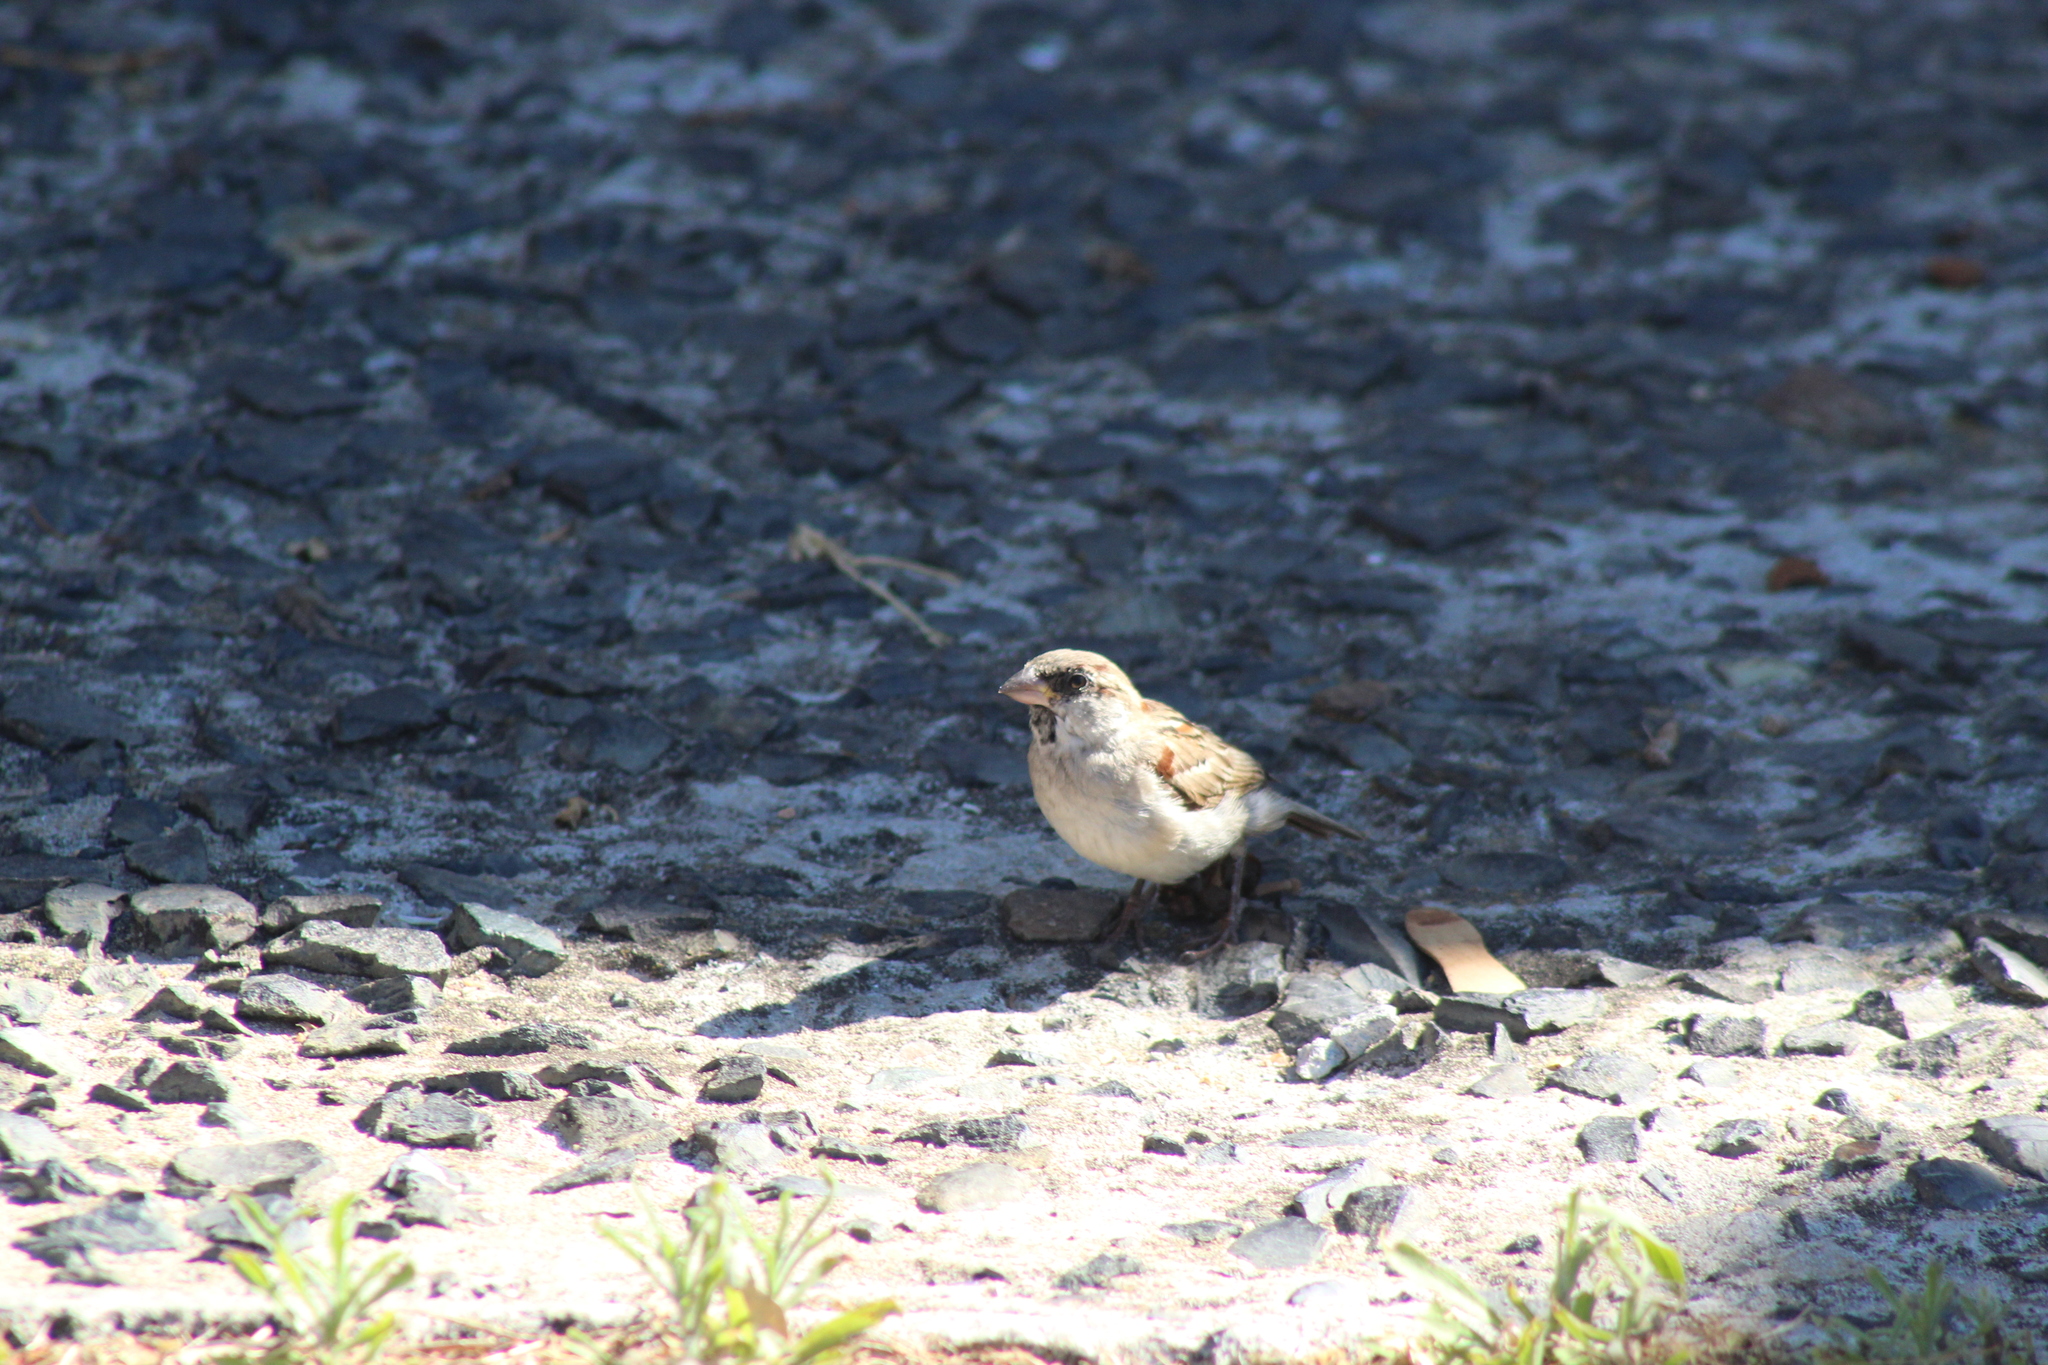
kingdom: Animalia
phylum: Chordata
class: Aves
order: Passeriformes
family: Passeridae
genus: Passer
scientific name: Passer domesticus
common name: House sparrow
